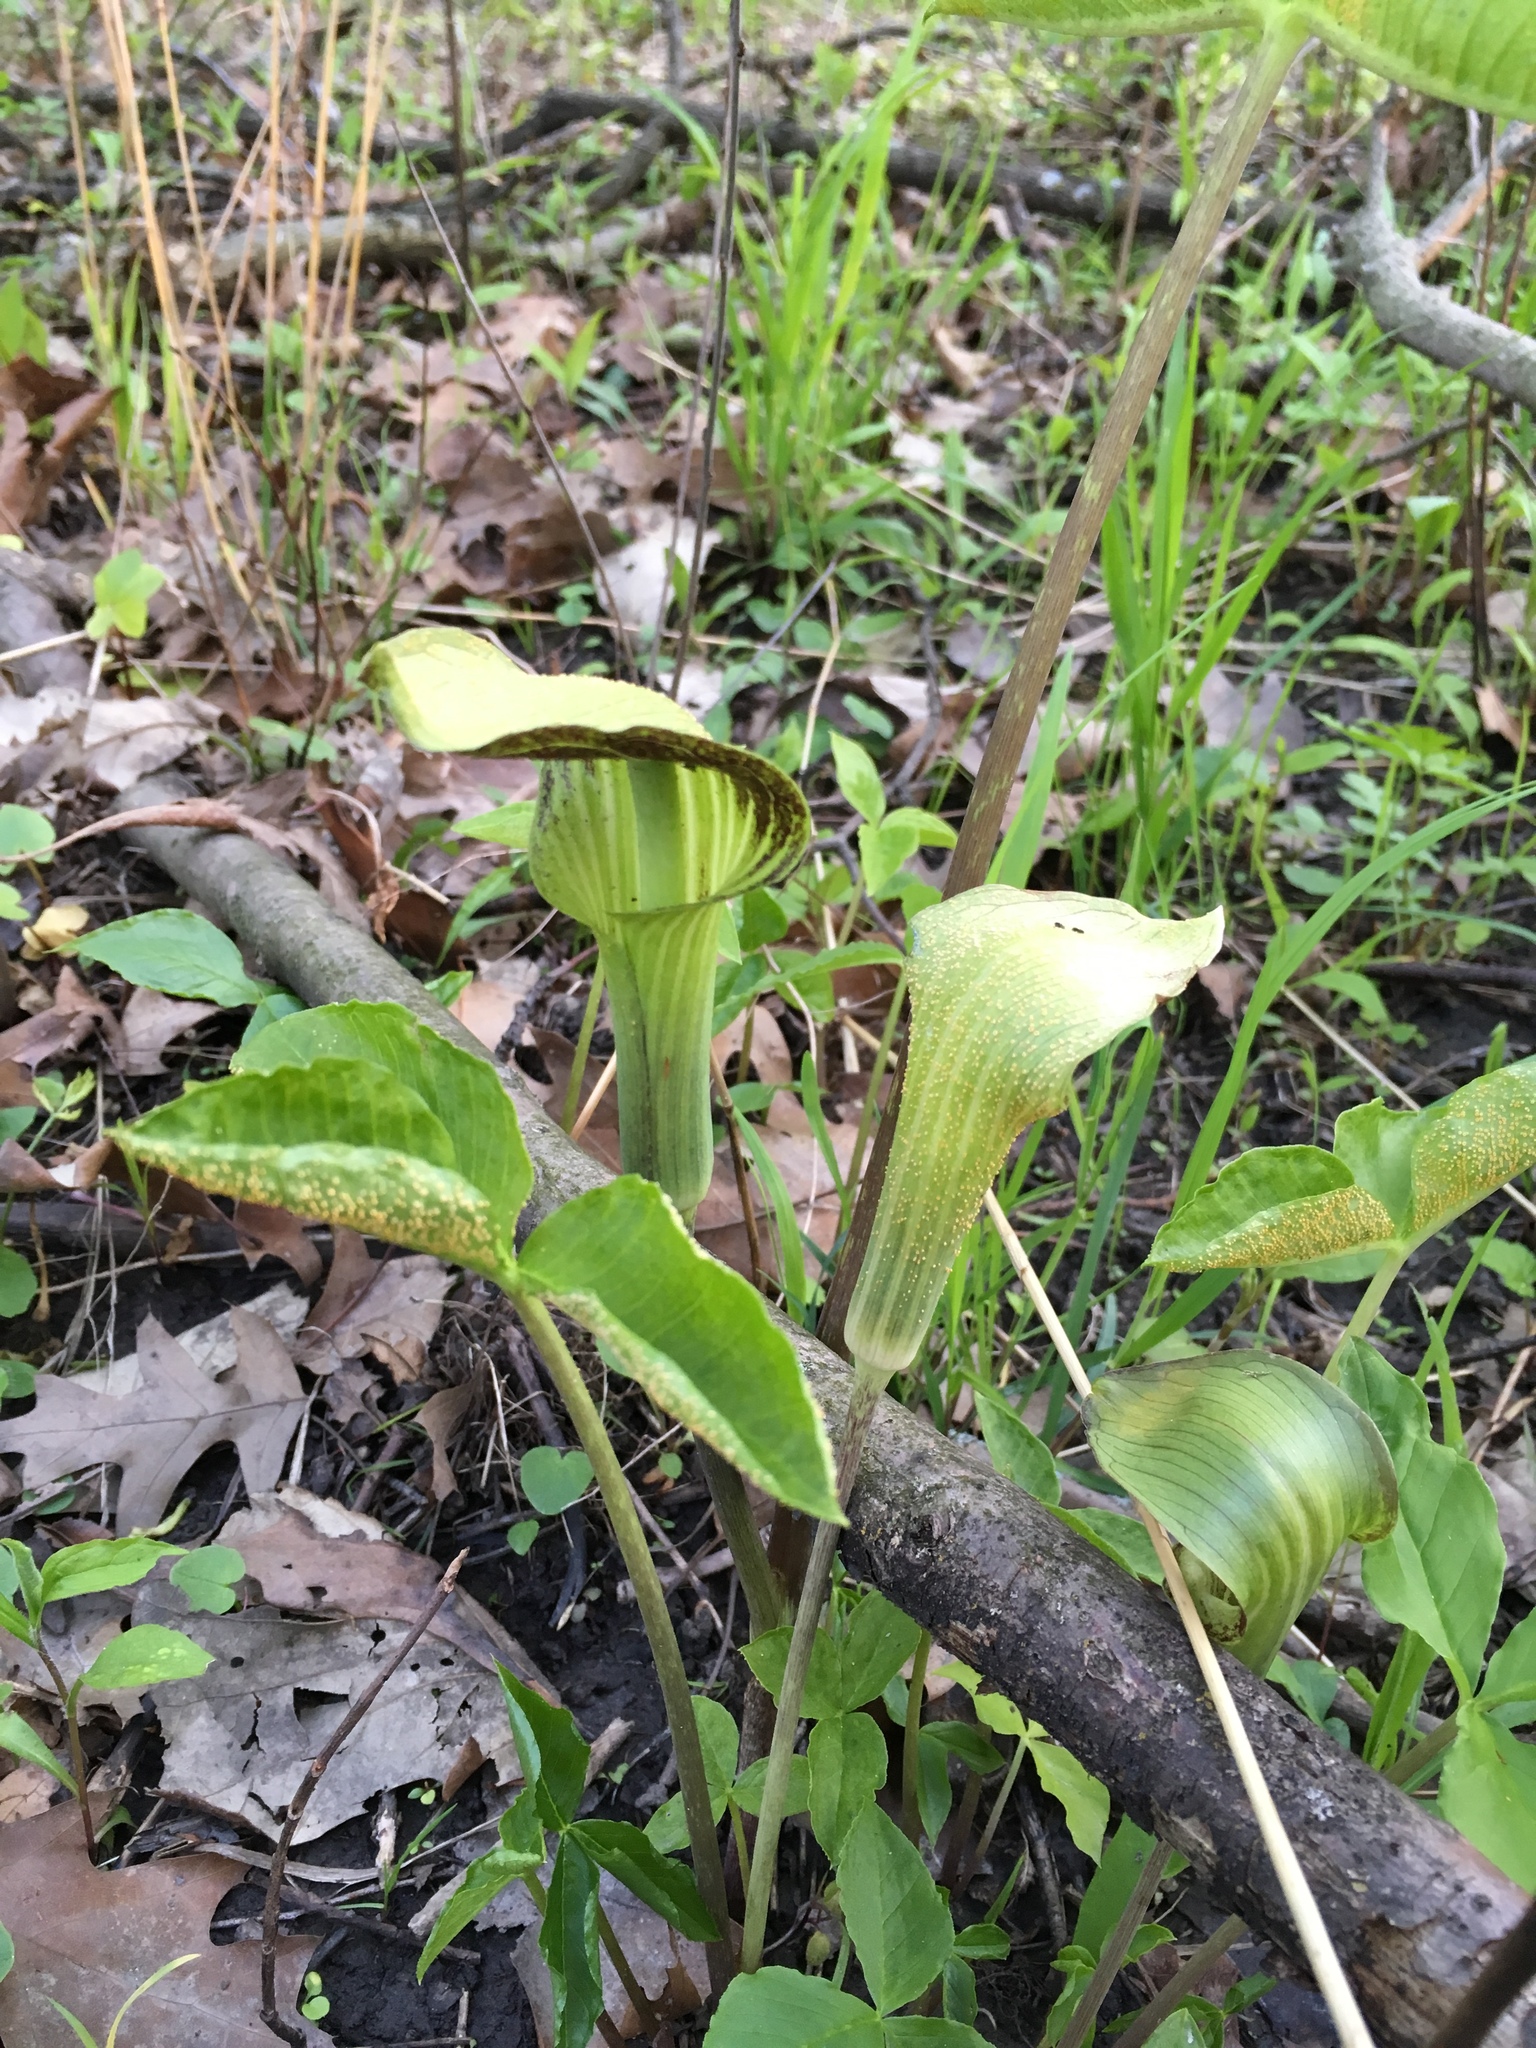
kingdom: Plantae
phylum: Tracheophyta
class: Liliopsida
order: Alismatales
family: Araceae
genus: Arisaema
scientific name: Arisaema triphyllum
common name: Jack-in-the-pulpit
